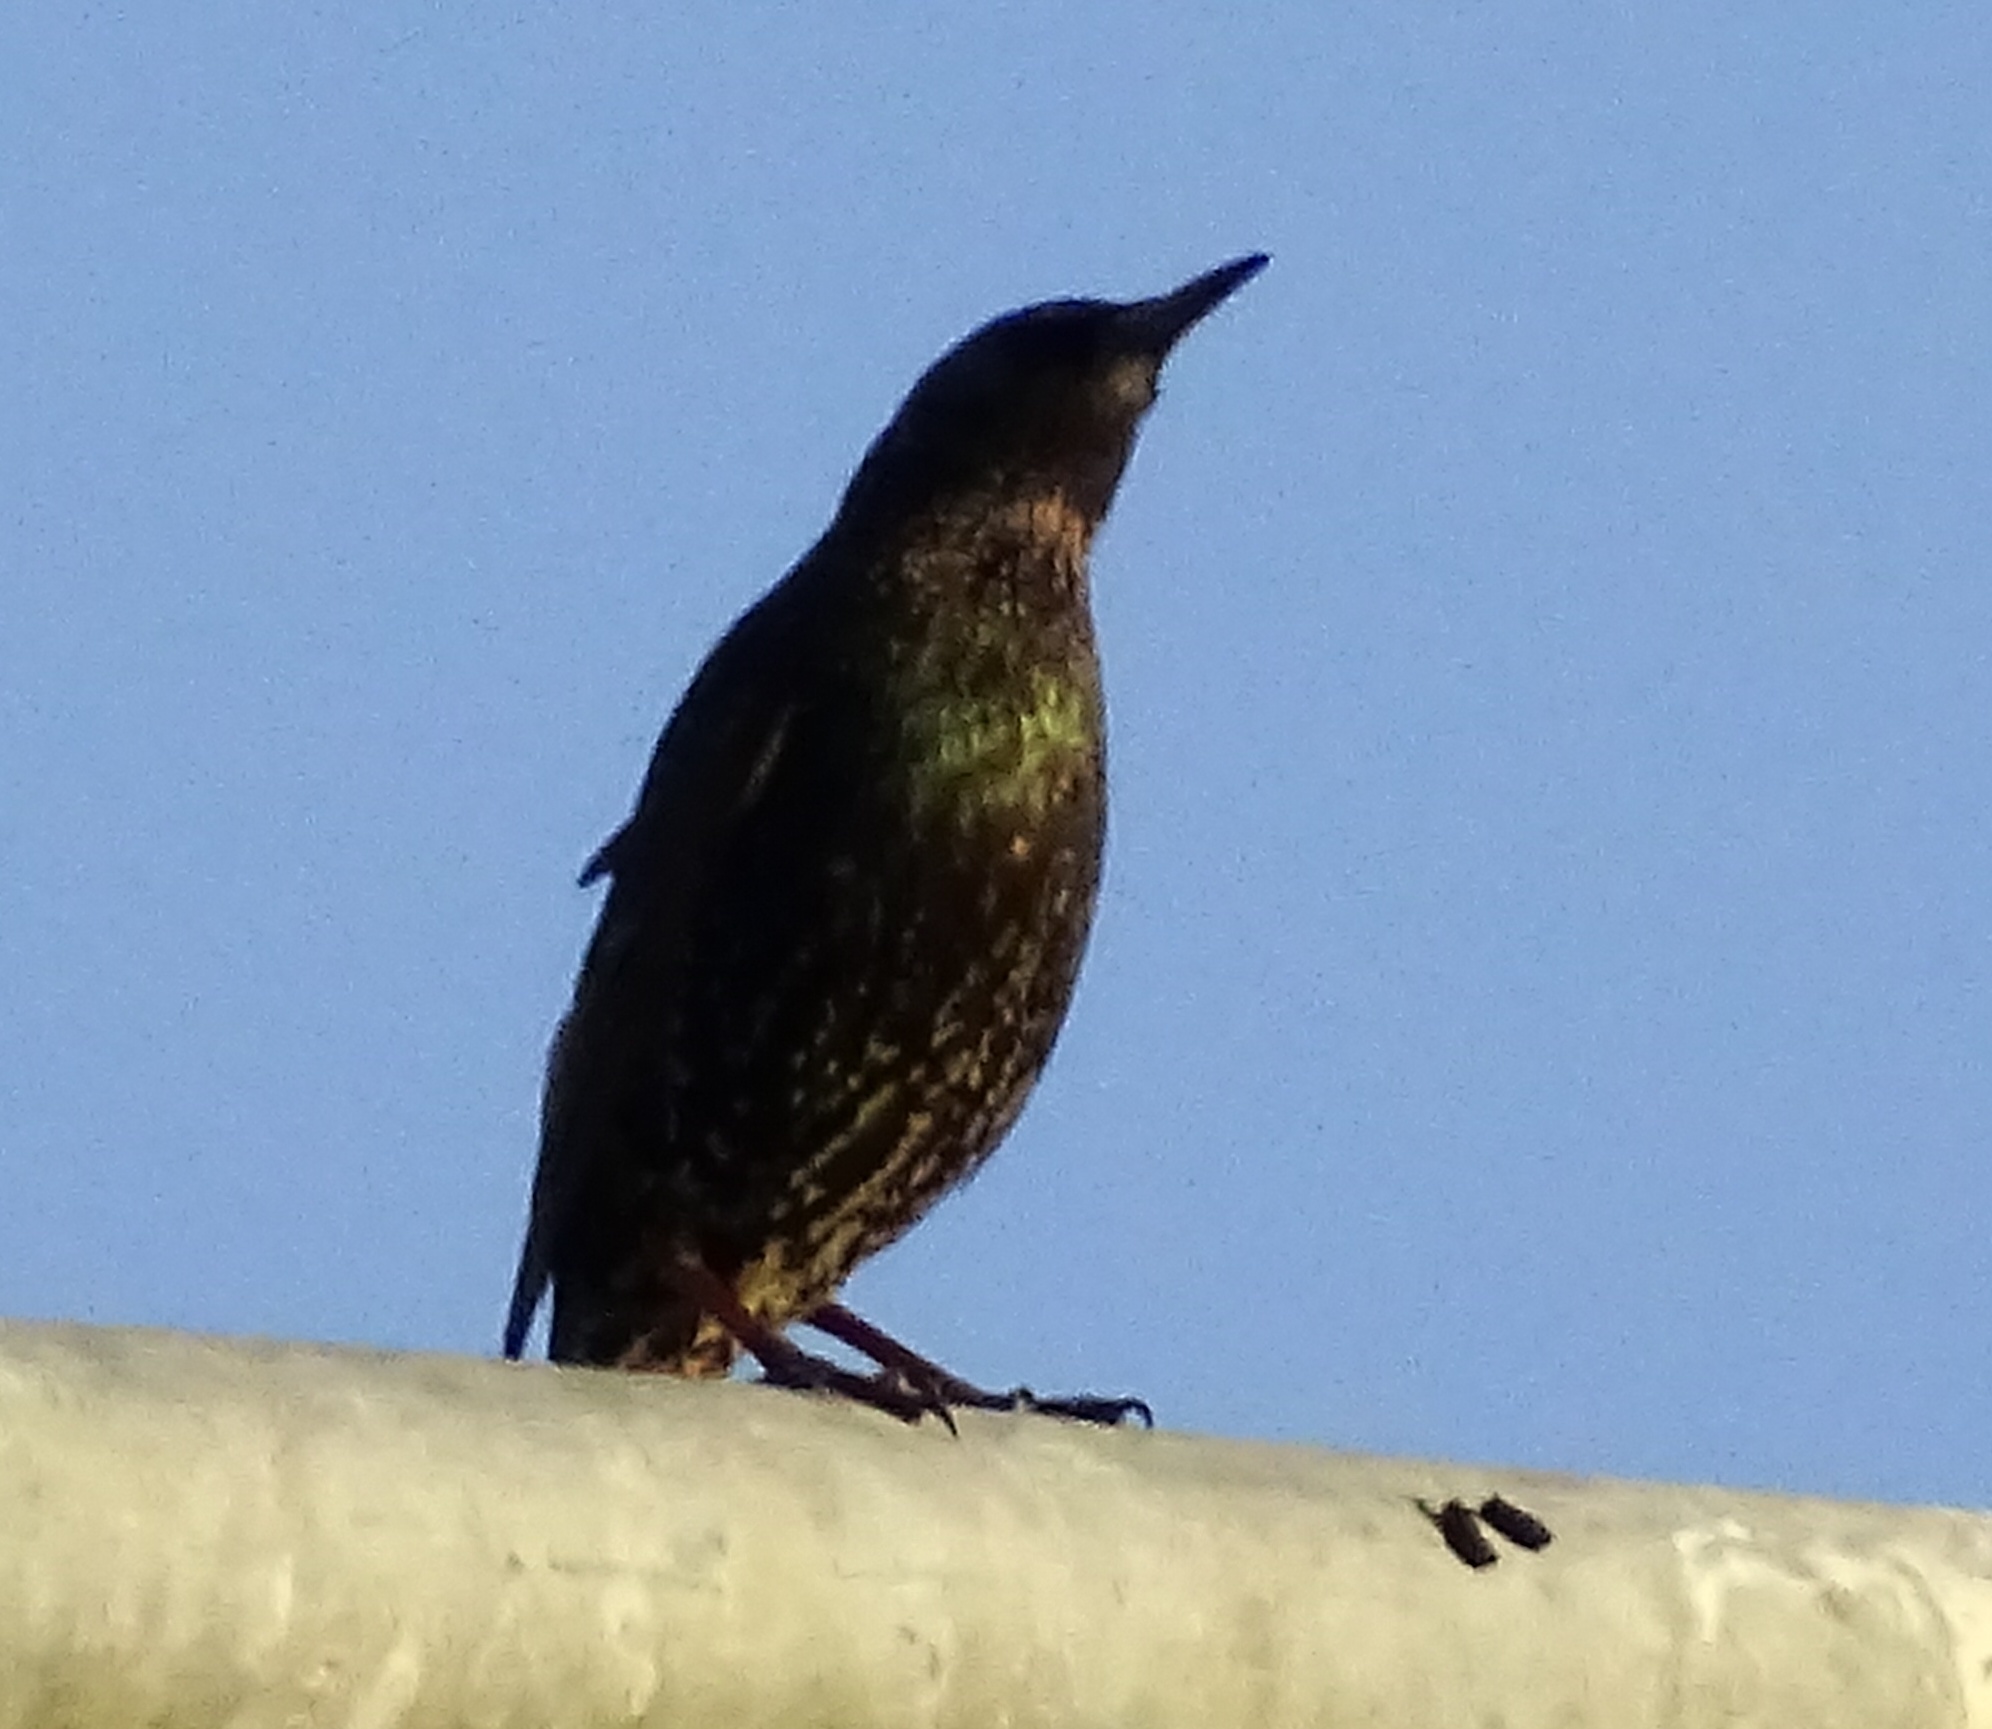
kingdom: Animalia
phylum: Chordata
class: Aves
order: Passeriformes
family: Sturnidae
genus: Sturnus
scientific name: Sturnus vulgaris
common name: Common starling
